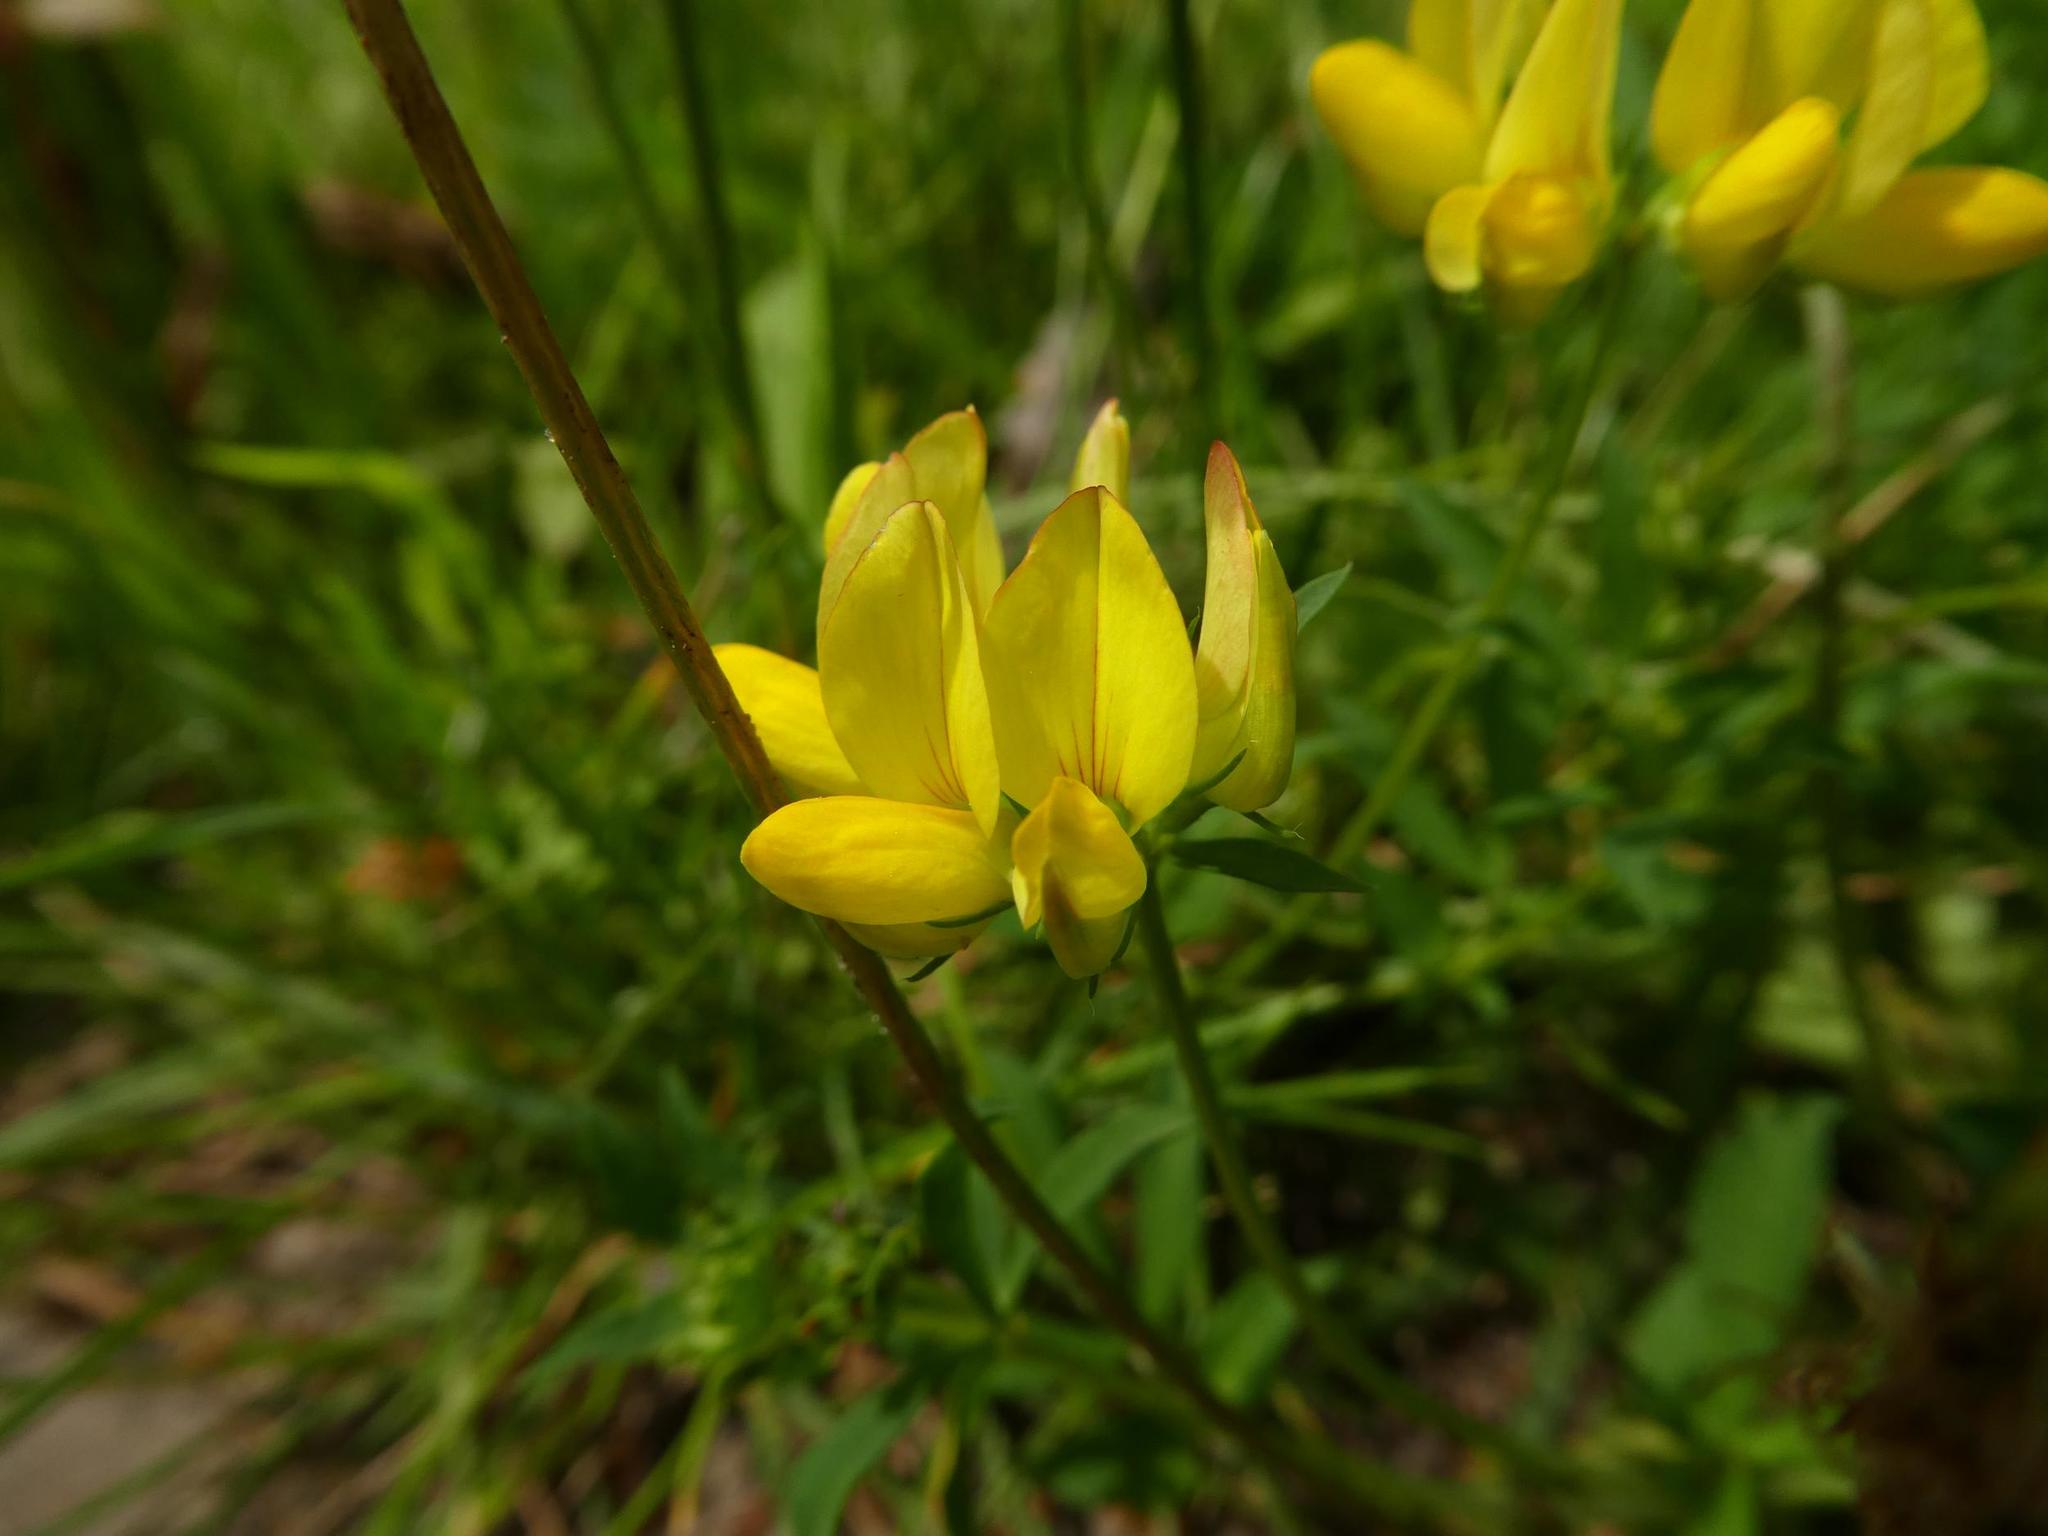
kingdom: Plantae
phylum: Tracheophyta
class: Magnoliopsida
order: Fabales
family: Fabaceae
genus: Lotus
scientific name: Lotus corniculatus
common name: Common bird's-foot-trefoil
